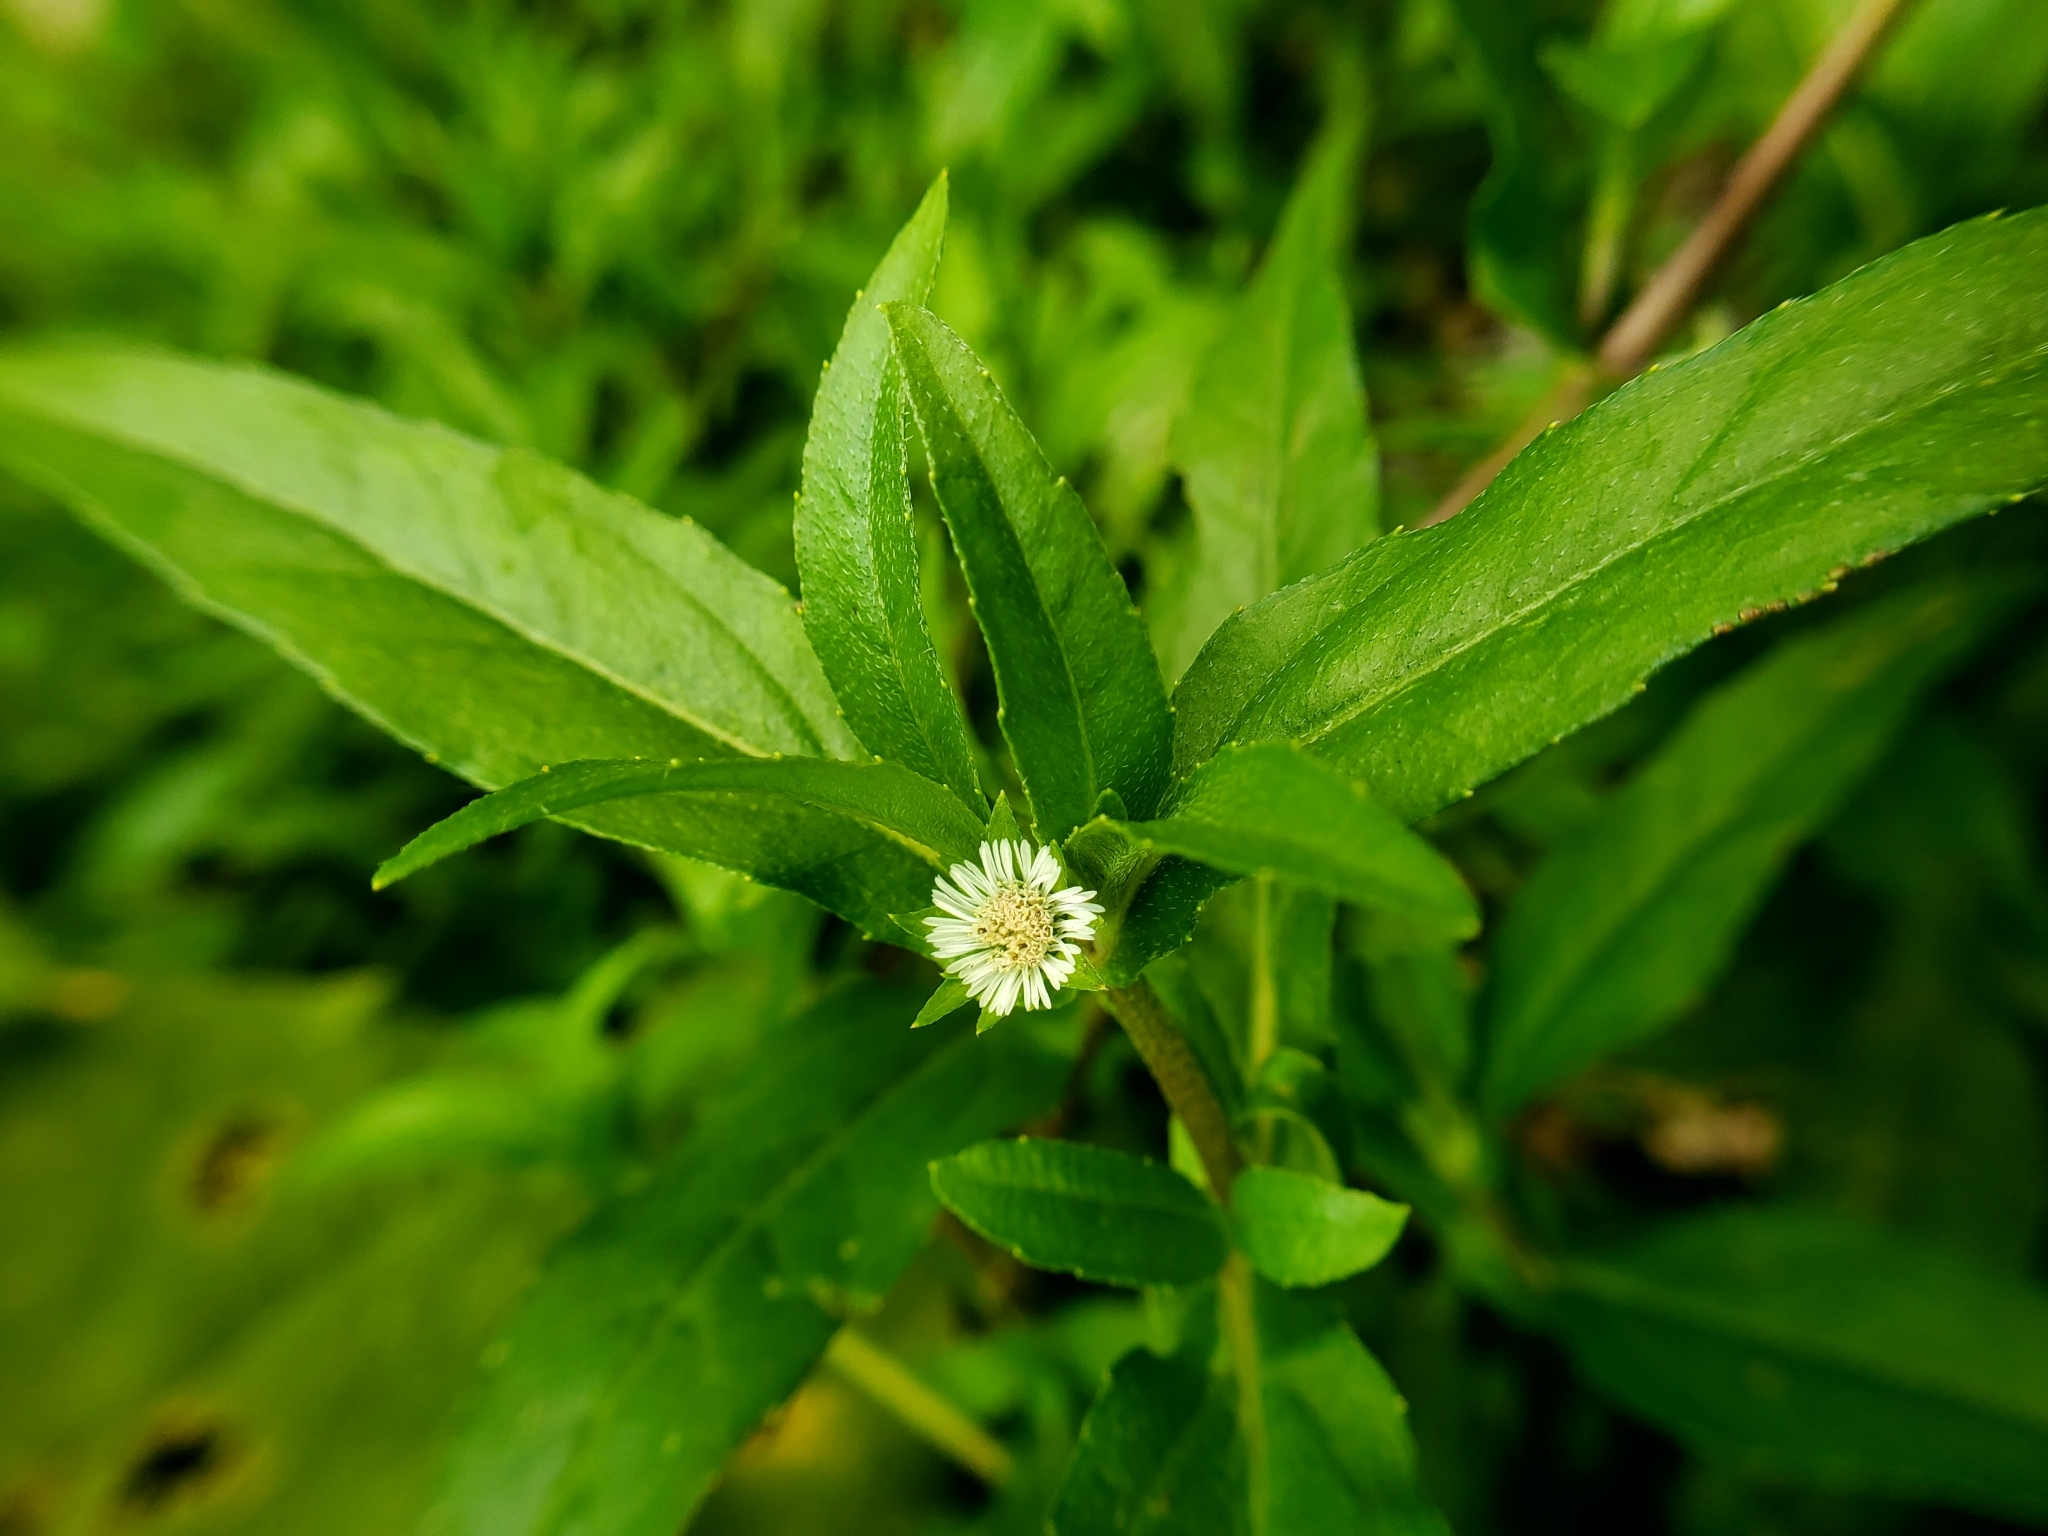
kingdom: Plantae
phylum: Tracheophyta
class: Magnoliopsida
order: Asterales
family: Asteraceae
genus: Eclipta
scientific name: Eclipta prostrata
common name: False daisy
